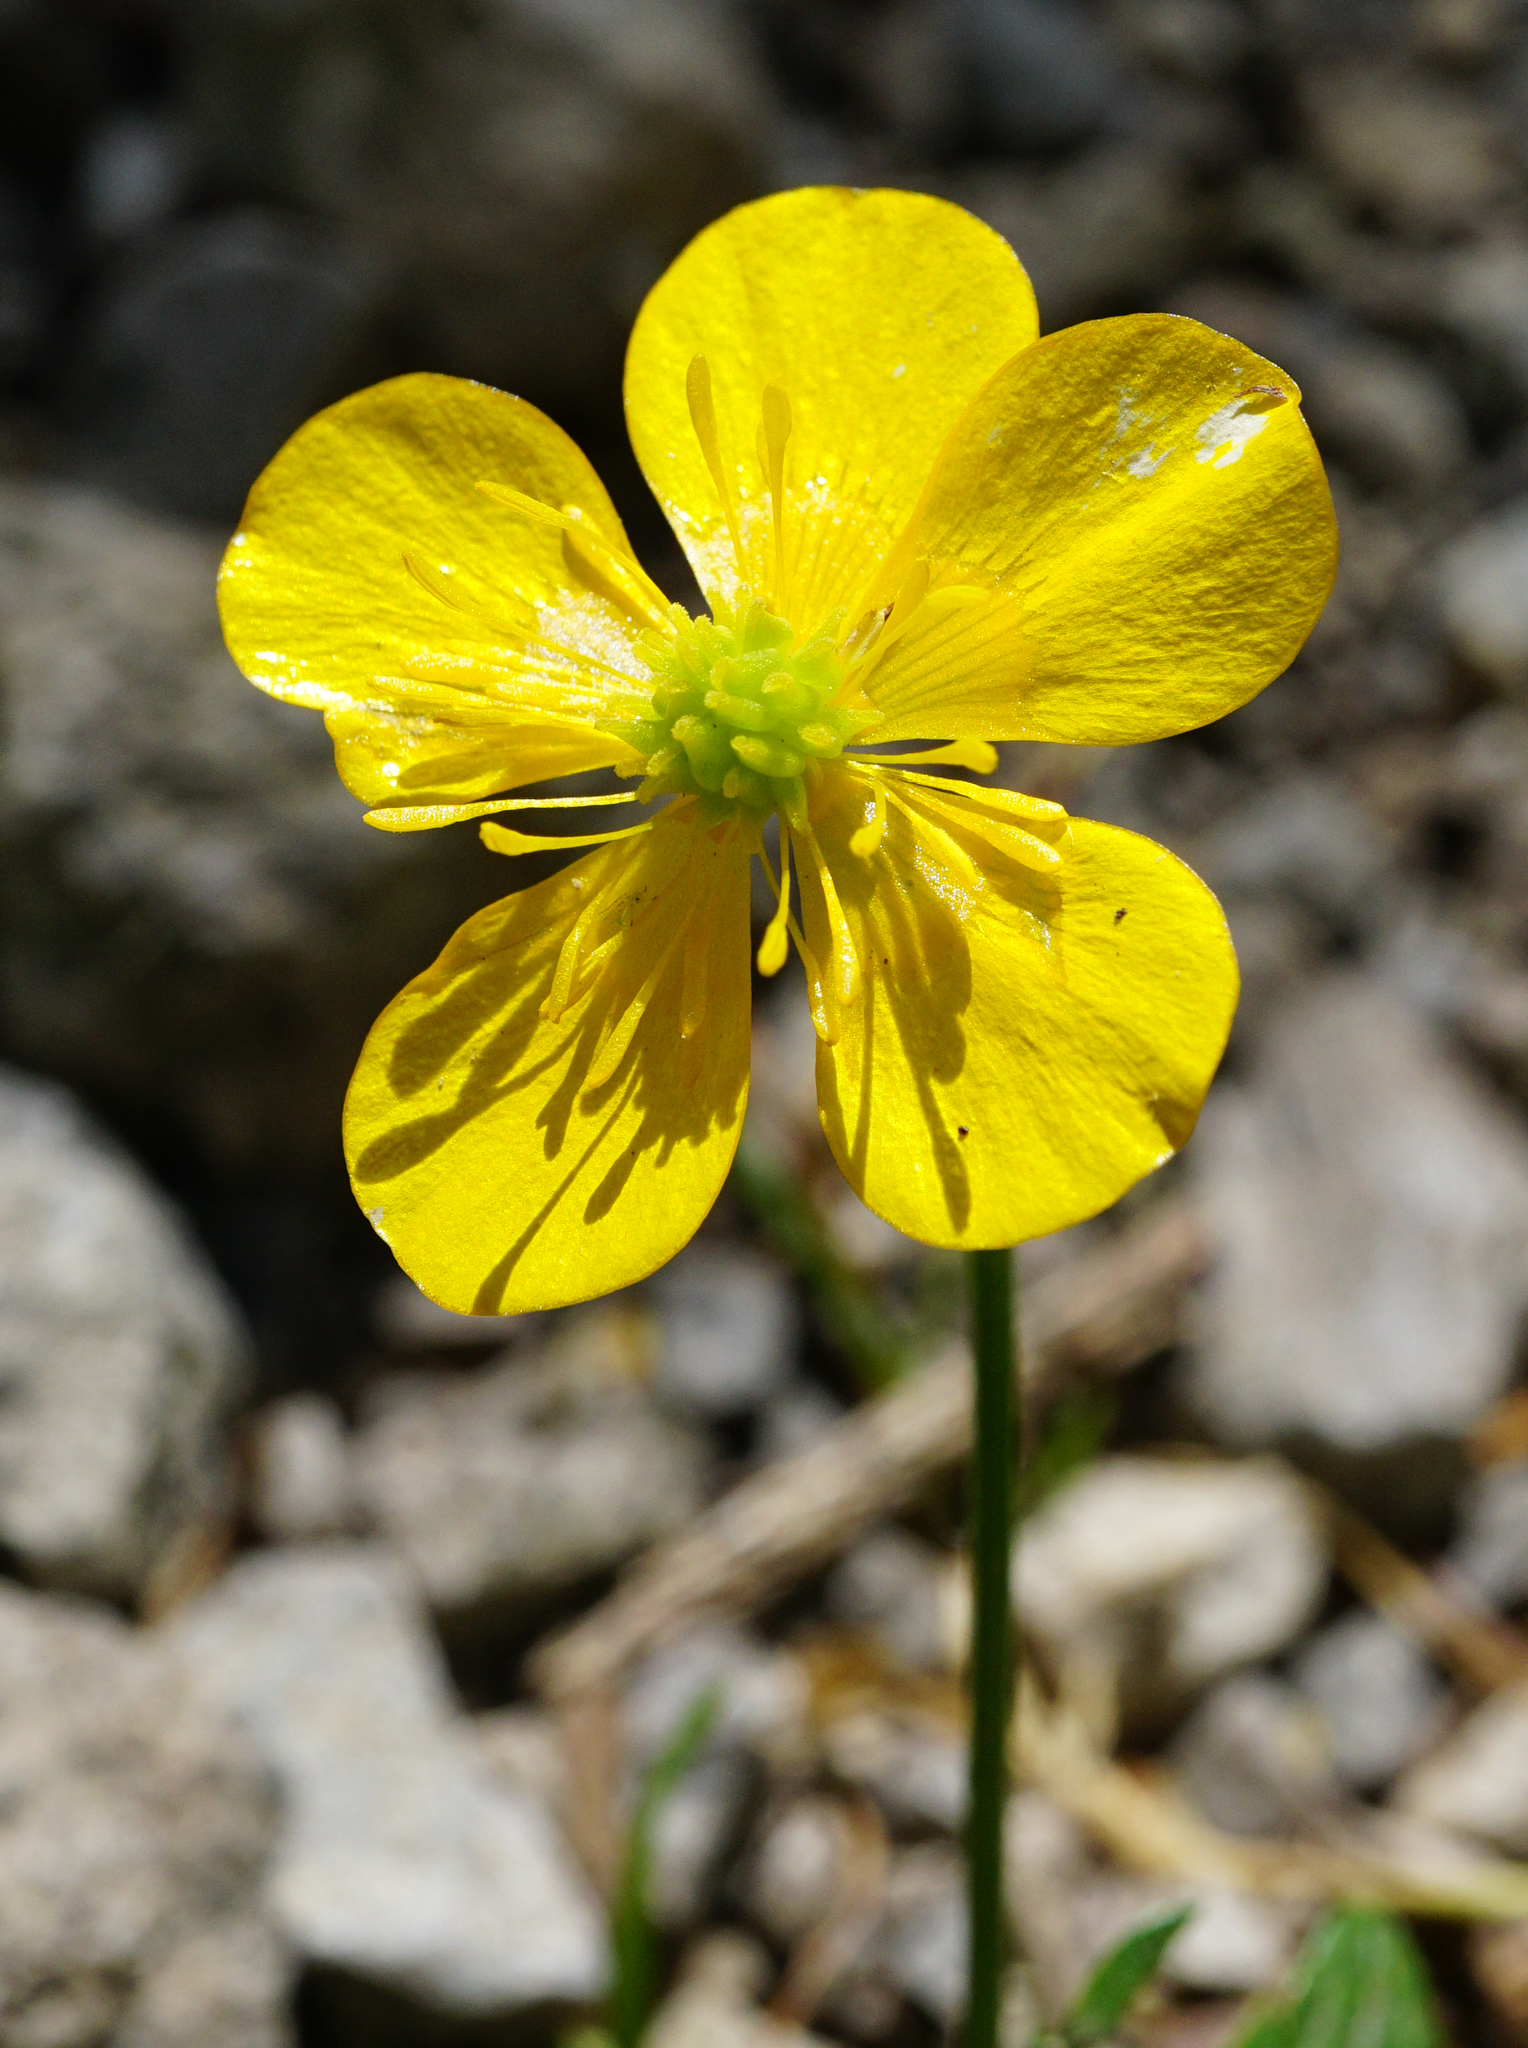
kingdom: Plantae
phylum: Tracheophyta
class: Magnoliopsida
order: Ranunculales
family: Ranunculaceae
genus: Ranunculus
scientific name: Ranunculus repens
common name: Creeping buttercup
